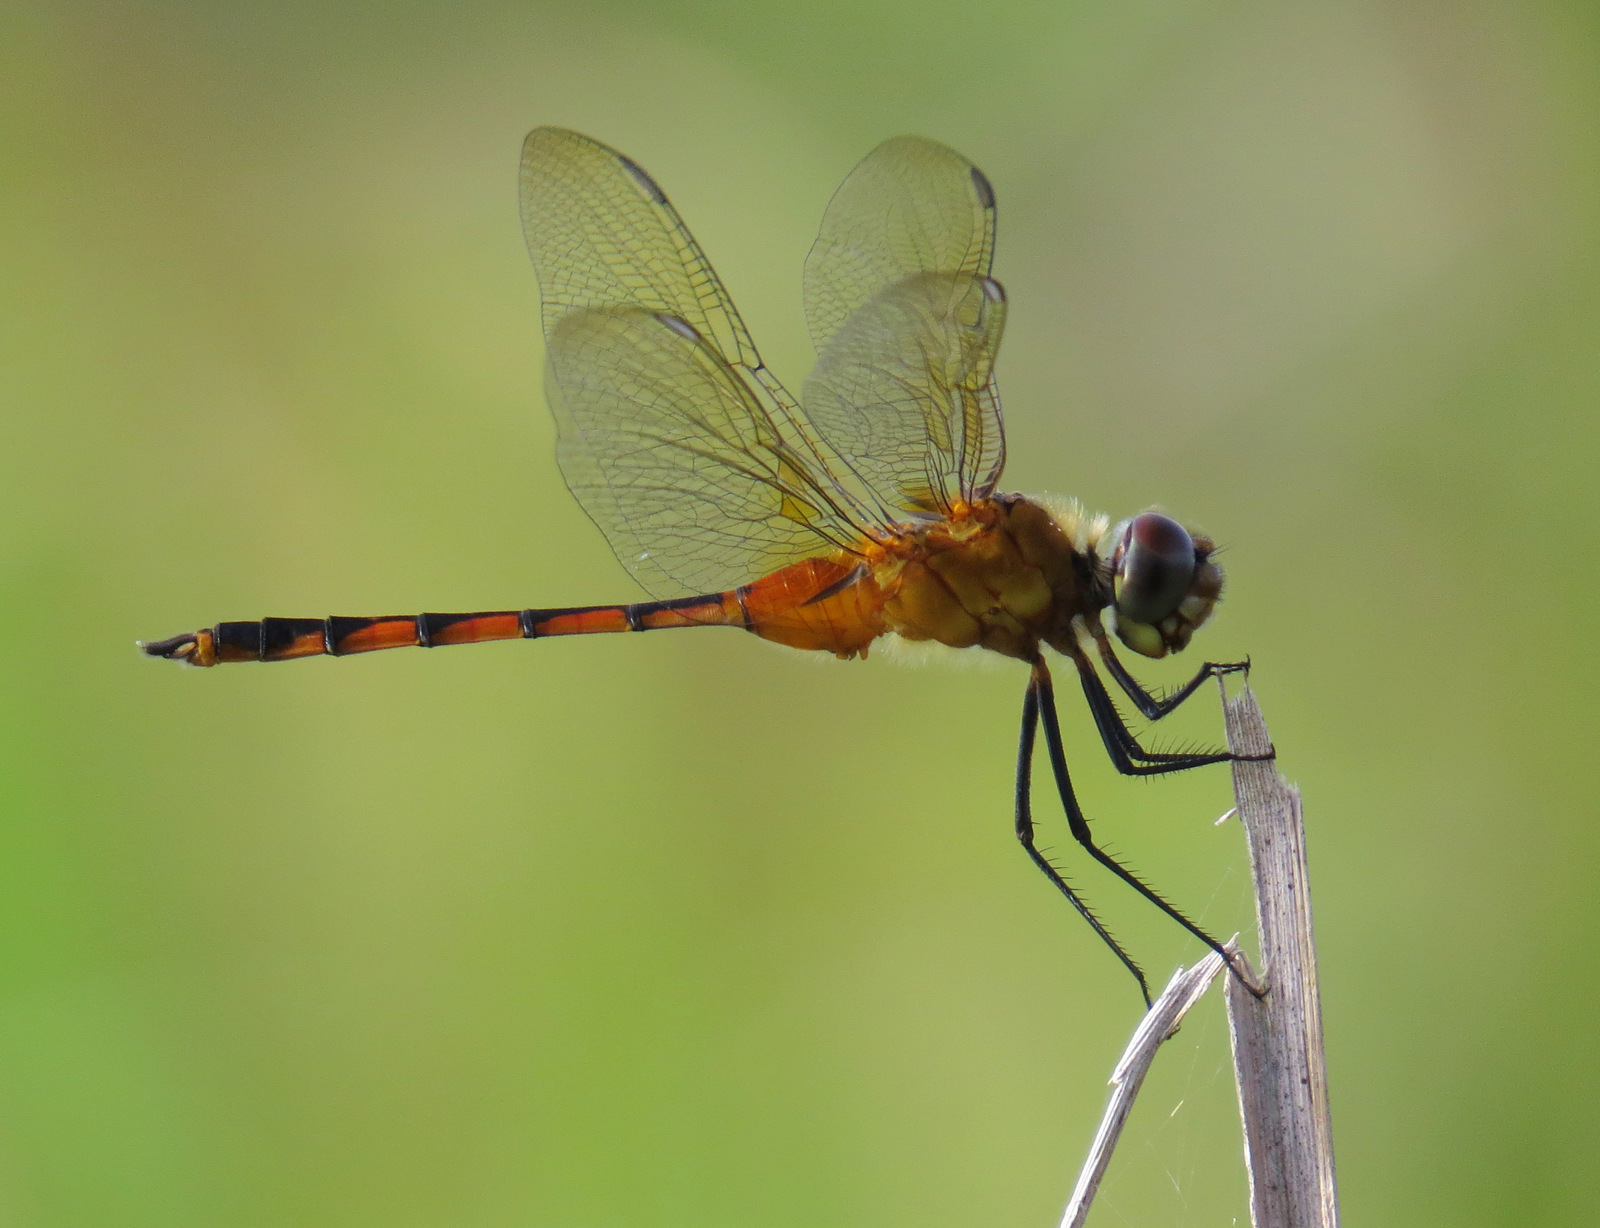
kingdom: Animalia
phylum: Arthropoda
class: Insecta
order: Odonata
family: Libellulidae
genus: Brachymesia
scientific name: Brachymesia herbida
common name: Tawny pennant
